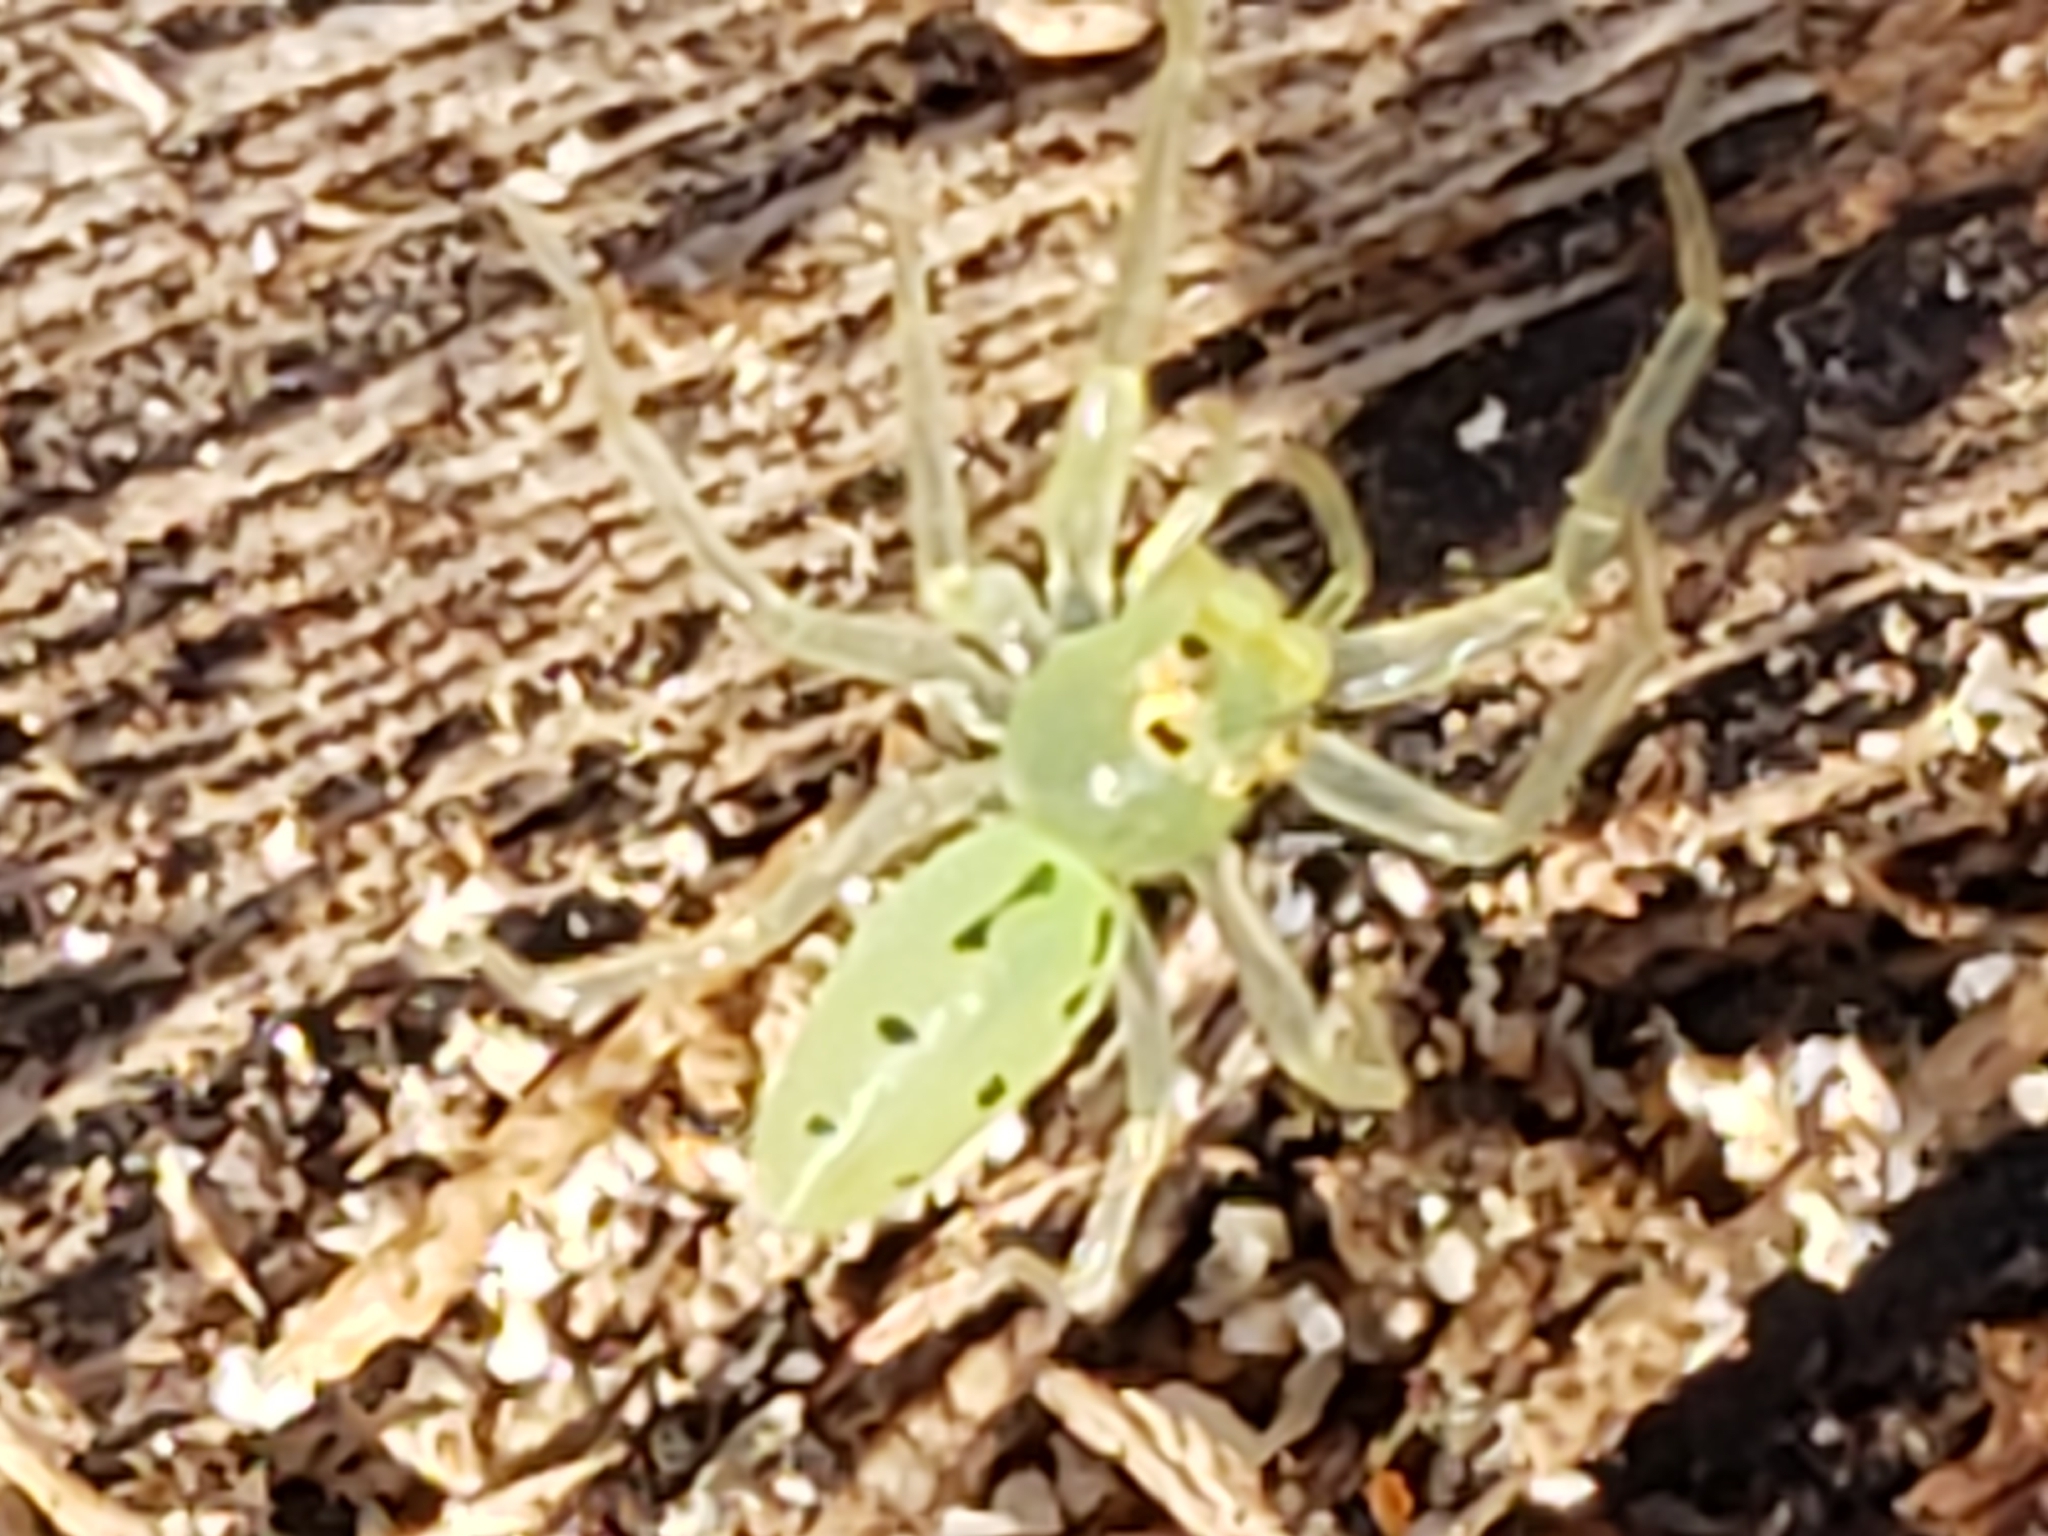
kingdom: Animalia
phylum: Arthropoda
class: Arachnida
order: Araneae
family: Salticidae
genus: Lyssomanes
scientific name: Lyssomanes viridis
